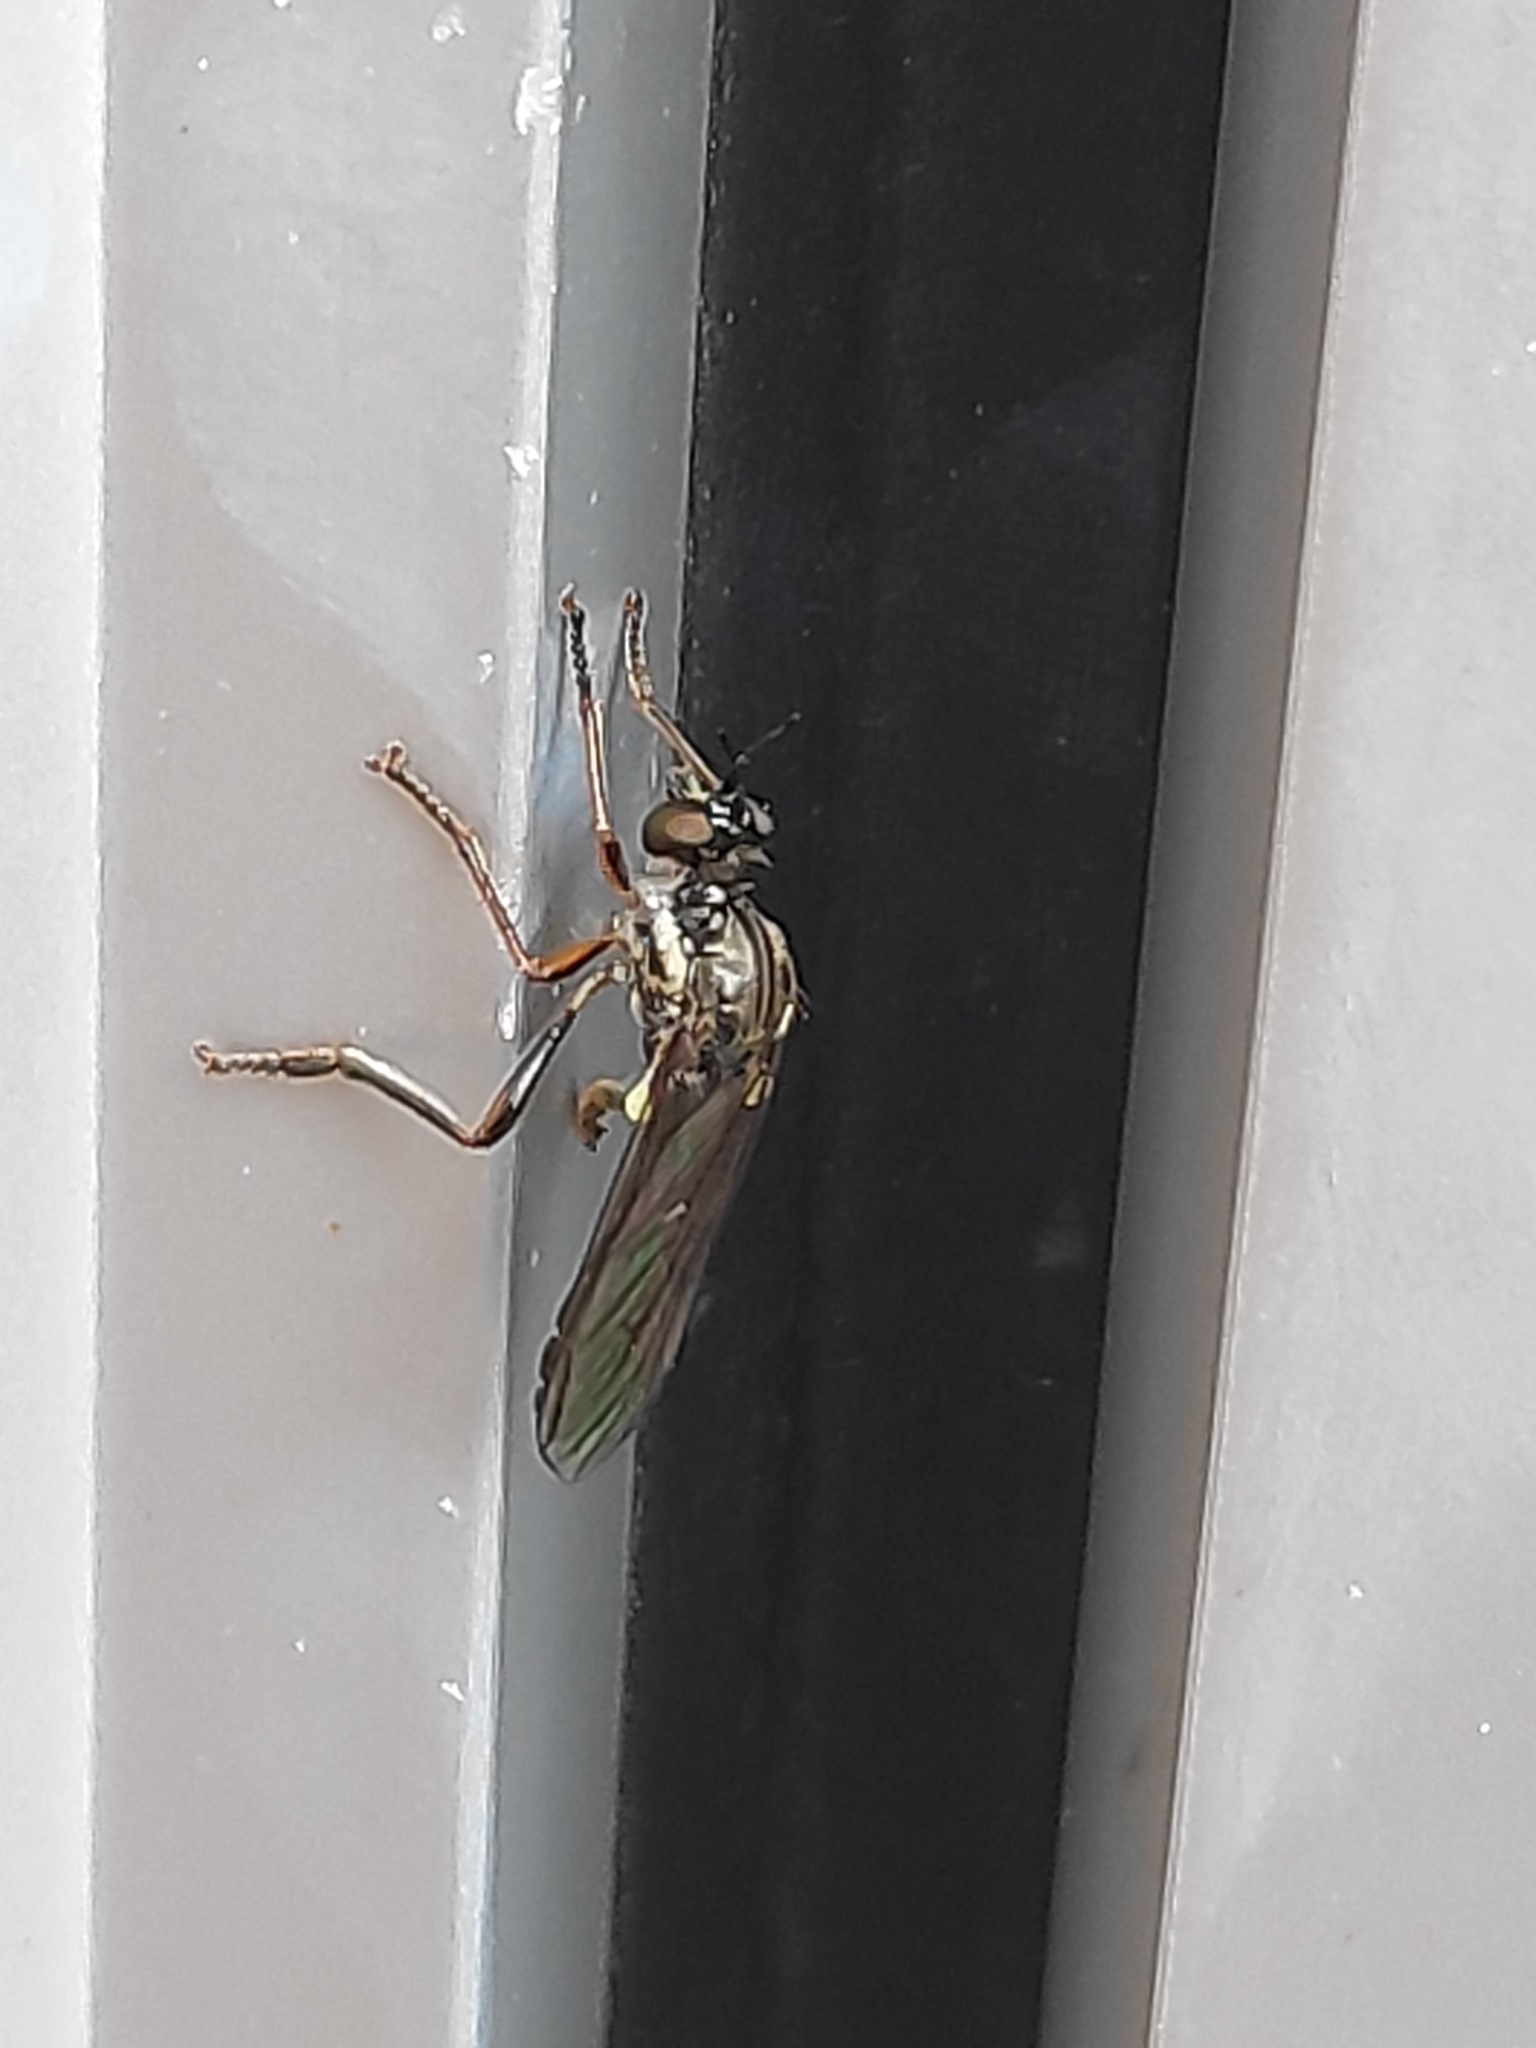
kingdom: Animalia
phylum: Arthropoda
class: Insecta
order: Diptera
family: Asilidae
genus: Dioctria
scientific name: Dioctria hyalipennis
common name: Stripe-legged robberfly
